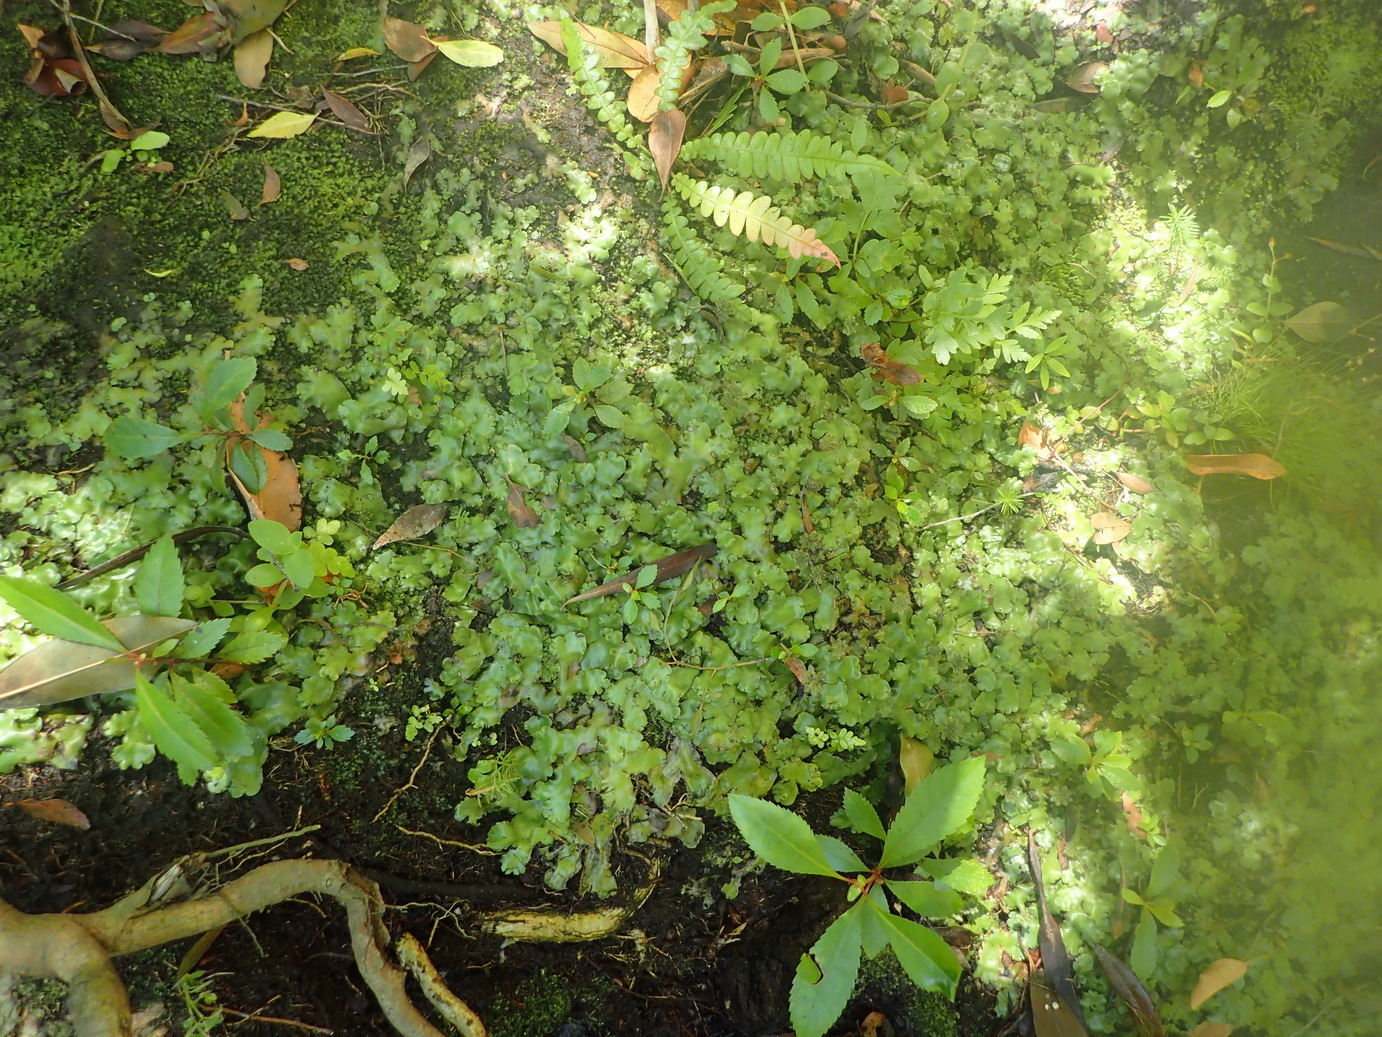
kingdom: Plantae
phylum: Marchantiophyta
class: Marchantiopsida
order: Marchantiales
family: Marchantiaceae
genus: Marchantia
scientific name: Marchantia berteroana
